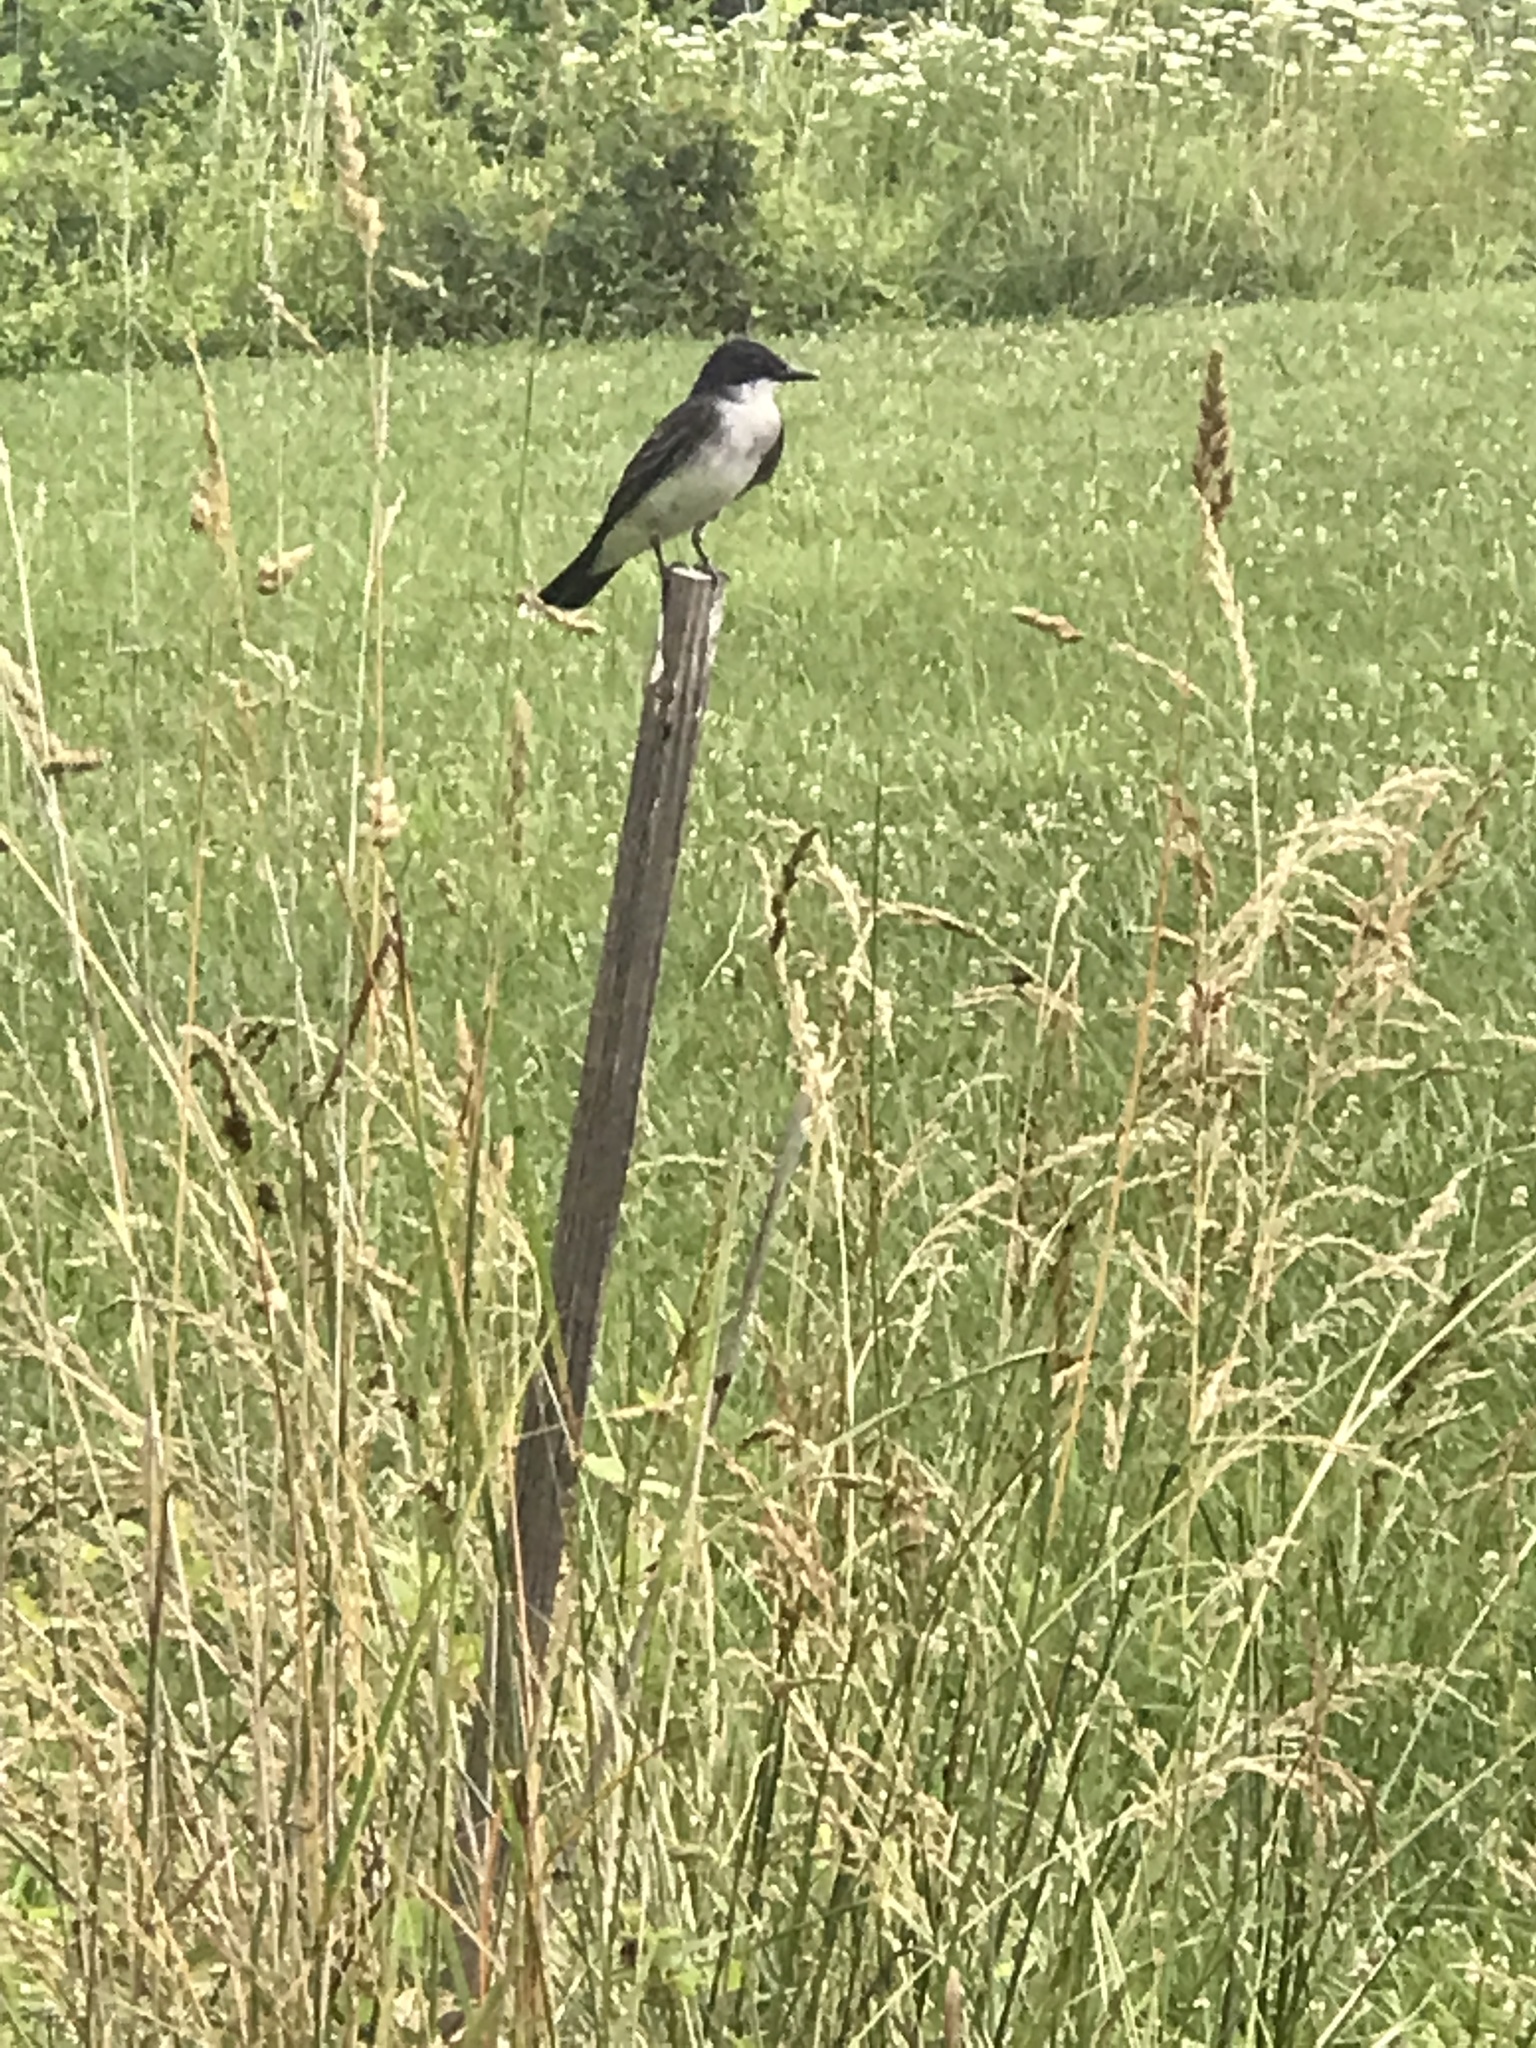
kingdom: Animalia
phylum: Chordata
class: Aves
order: Passeriformes
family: Tyrannidae
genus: Tyrannus
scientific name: Tyrannus tyrannus
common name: Eastern kingbird
